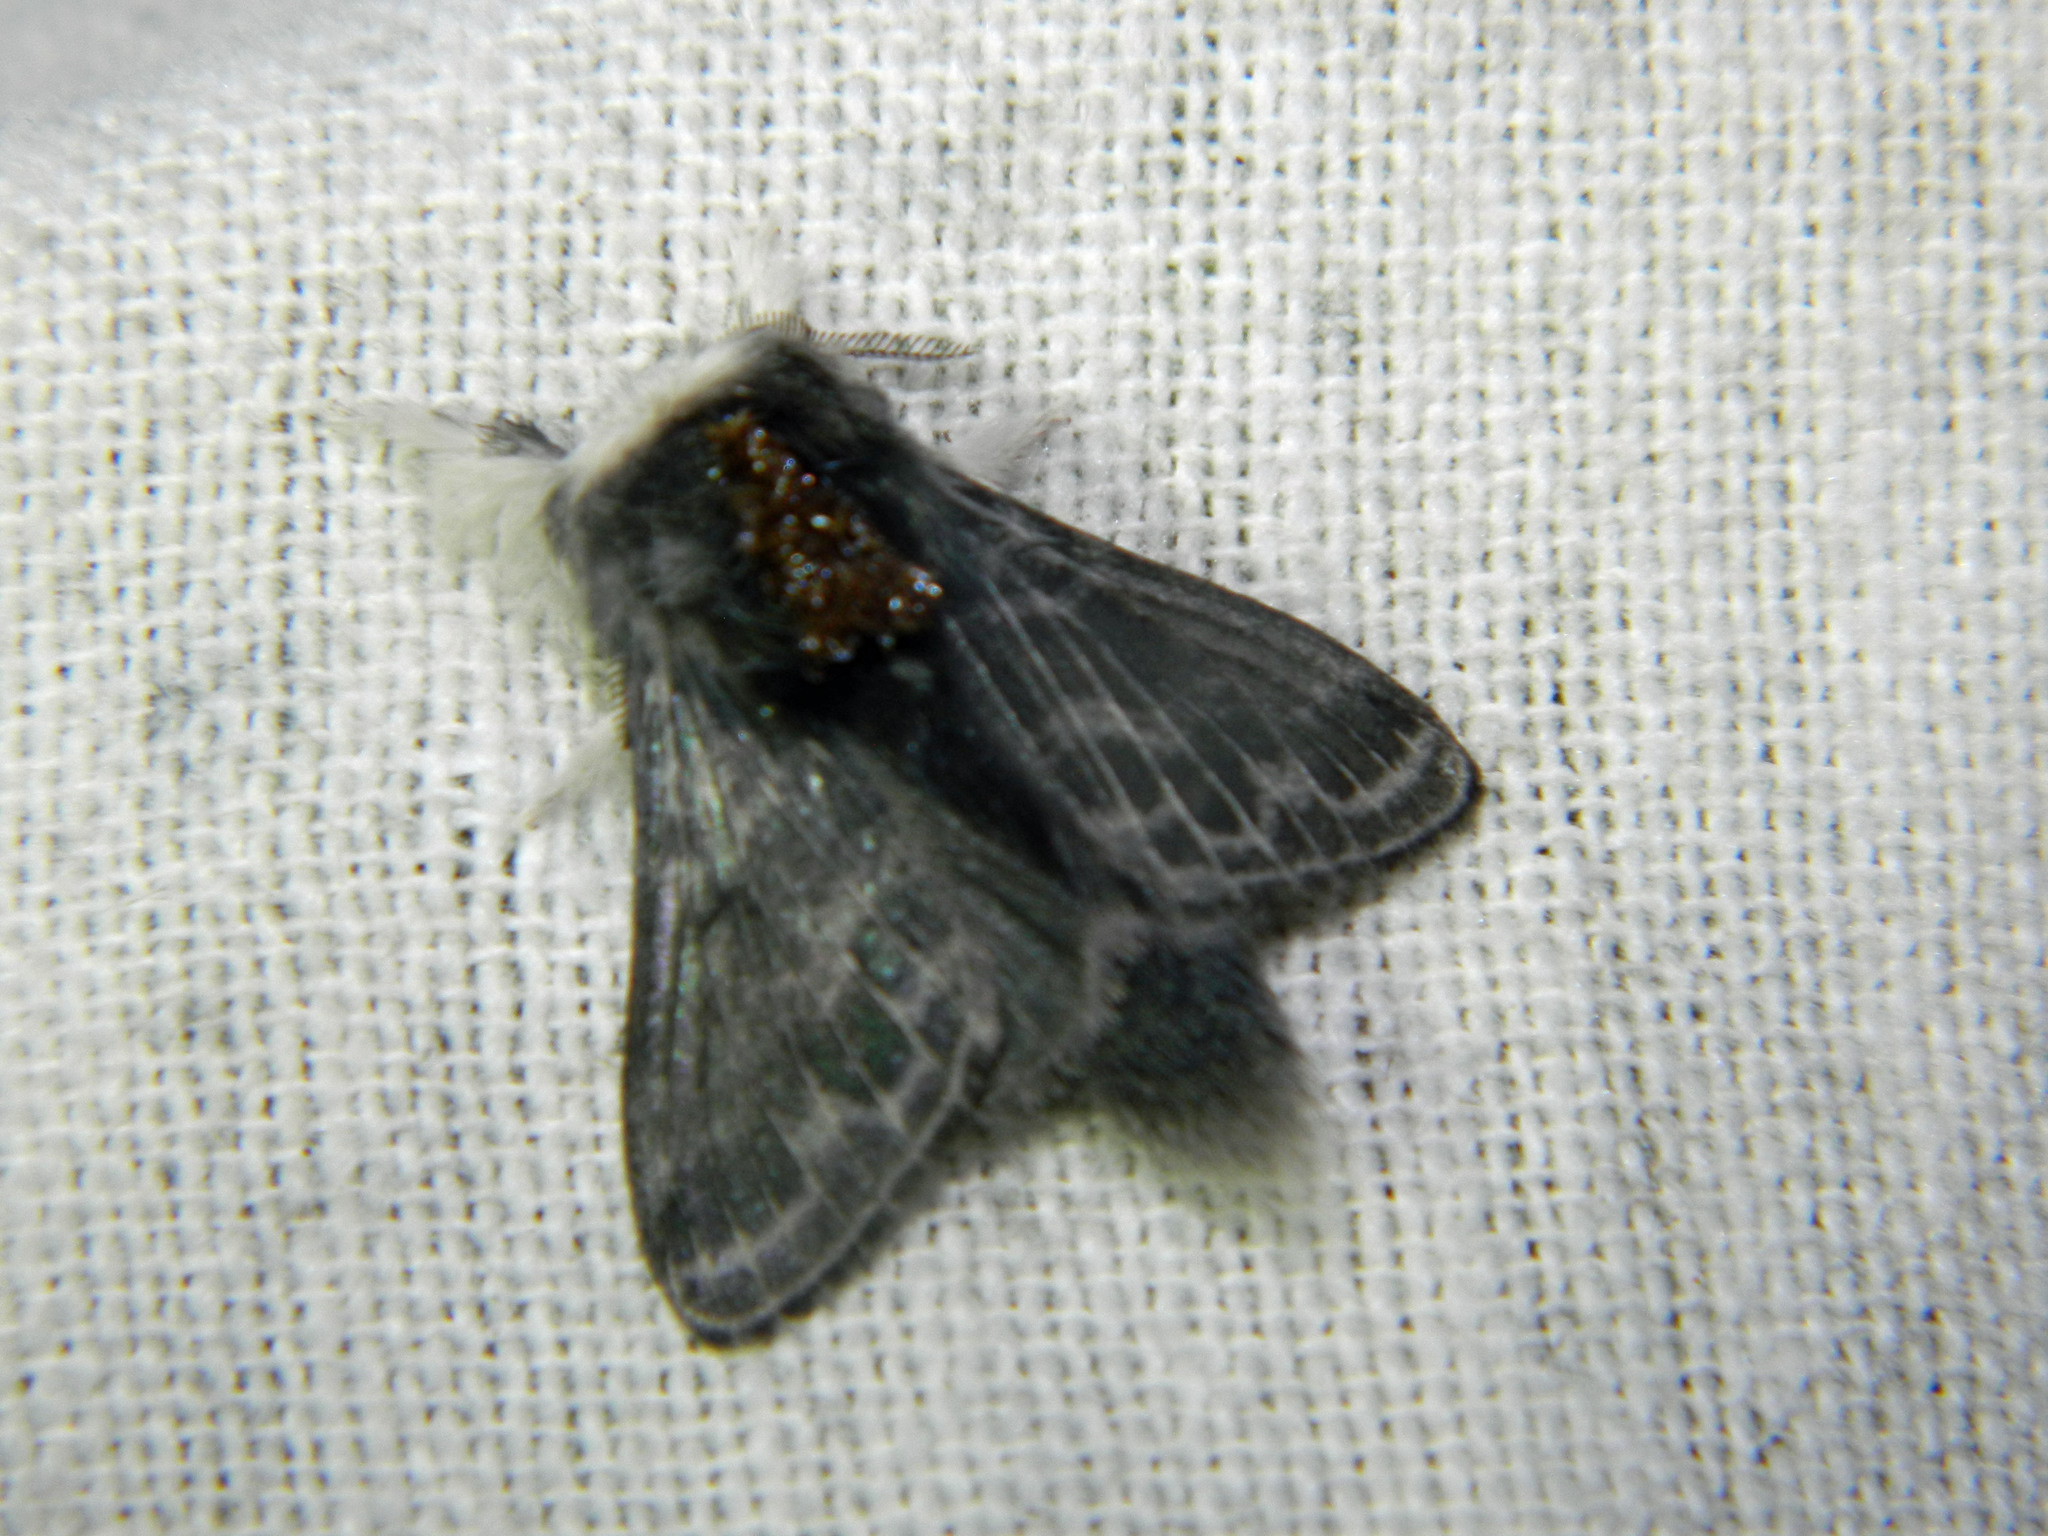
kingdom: Animalia
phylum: Arthropoda
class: Insecta
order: Lepidoptera
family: Lasiocampidae
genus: Tolype
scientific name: Tolype laricis
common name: Larch tolype moth
